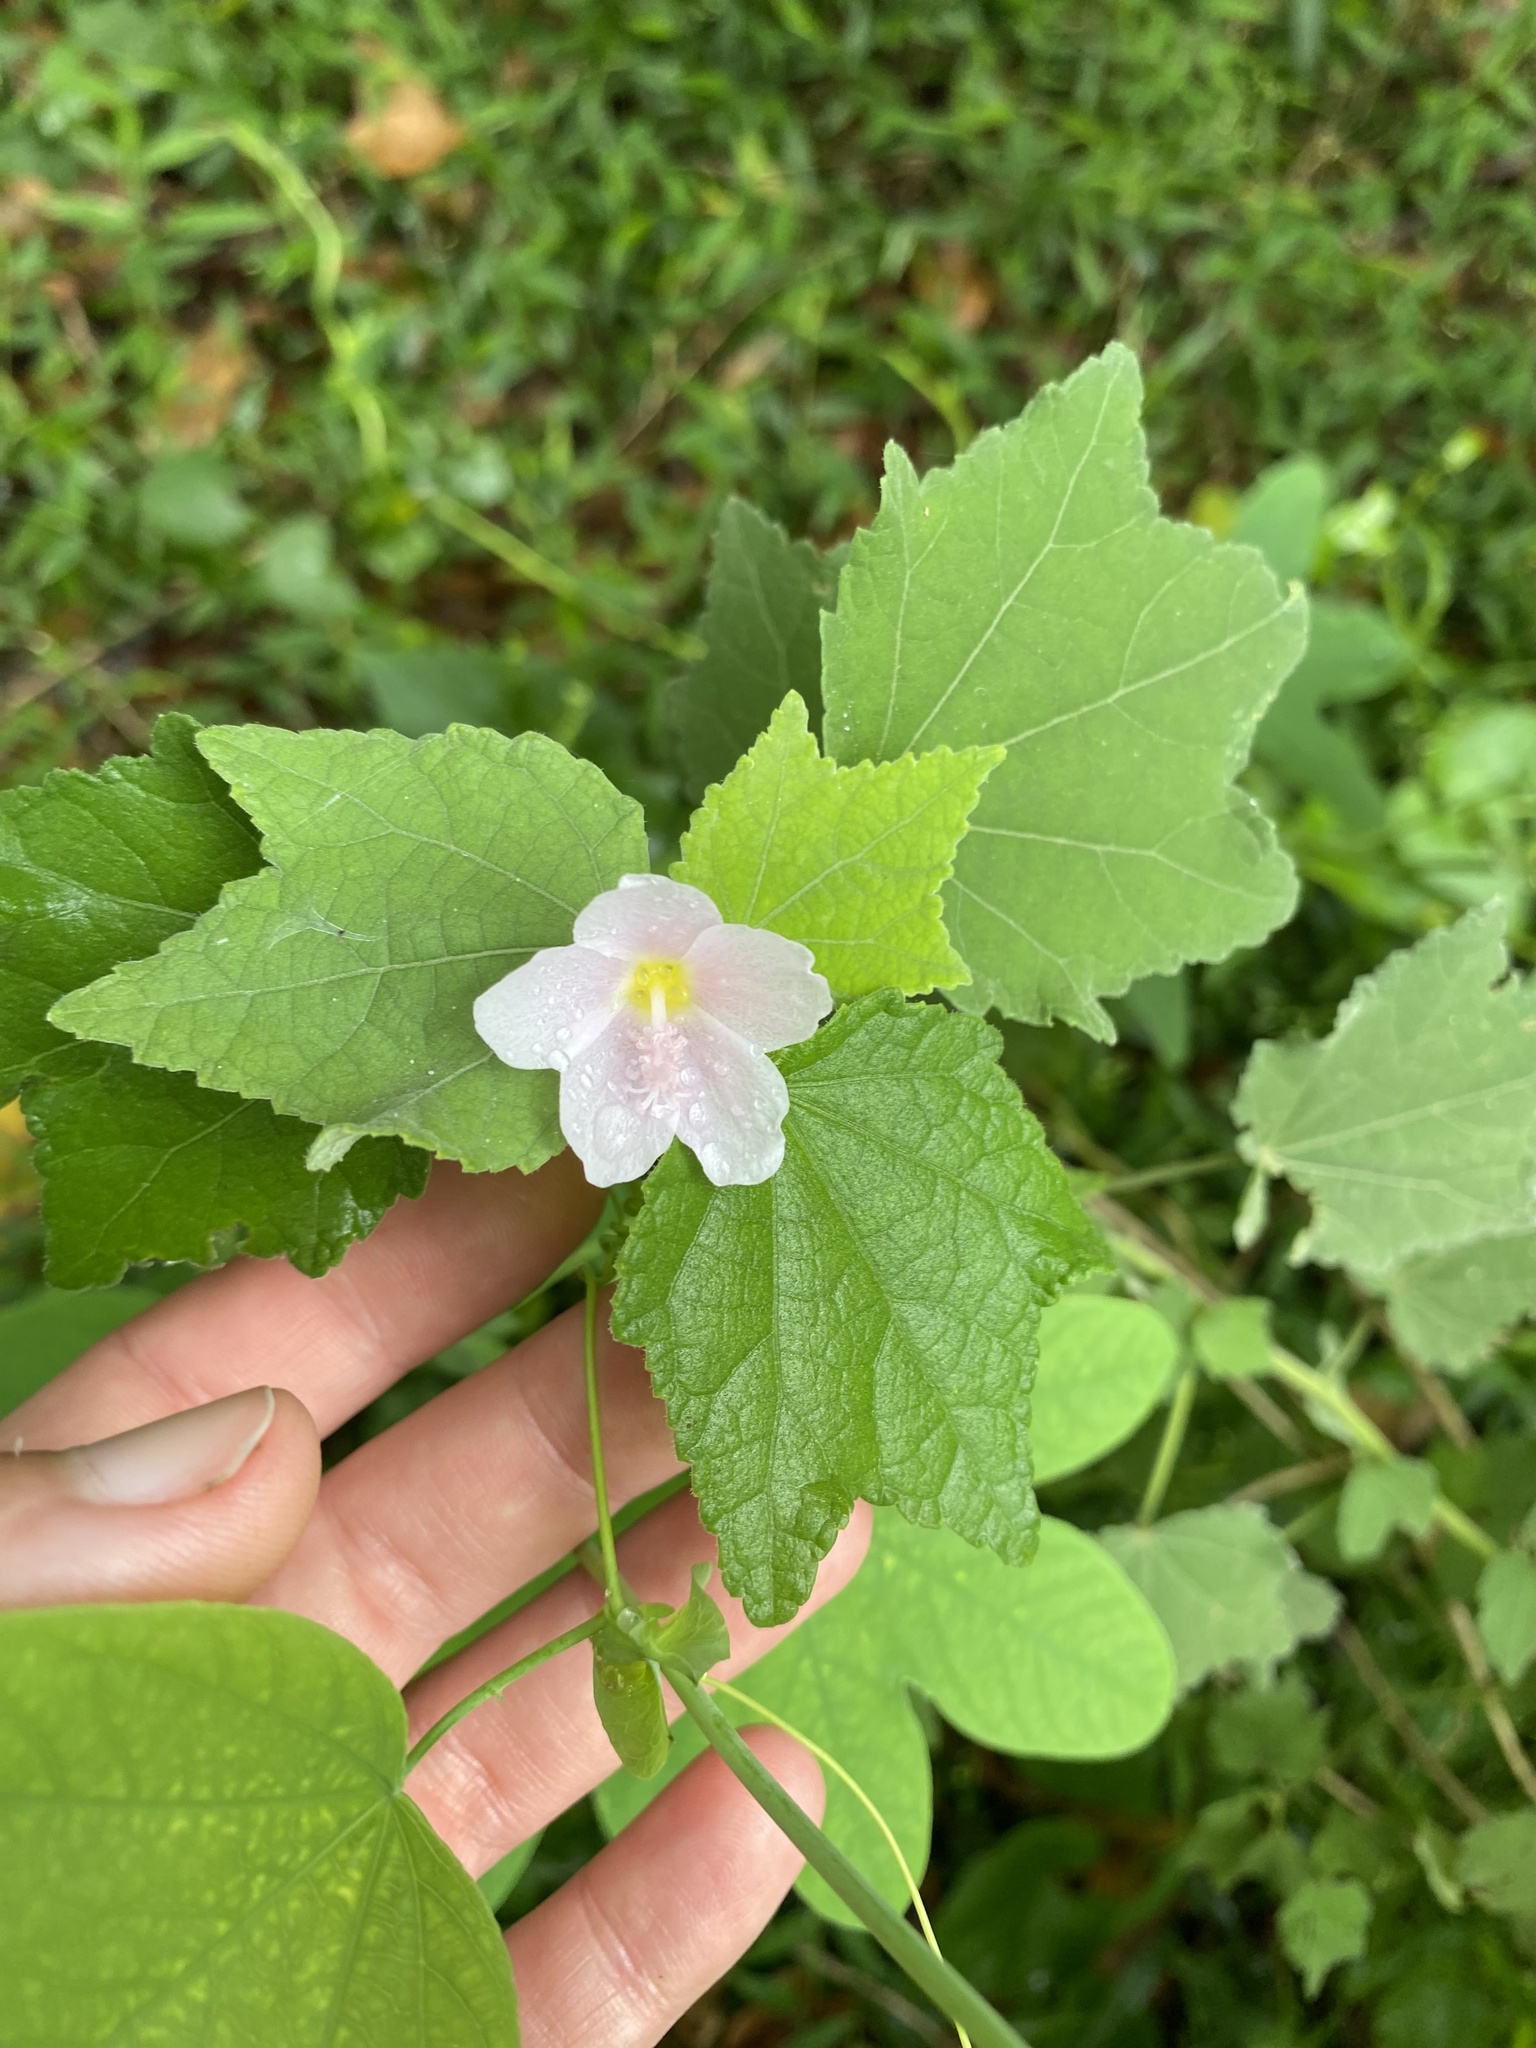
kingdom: Plantae
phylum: Tracheophyta
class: Magnoliopsida
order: Malvales
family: Malvaceae
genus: Pavonia
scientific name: Pavonia columella
